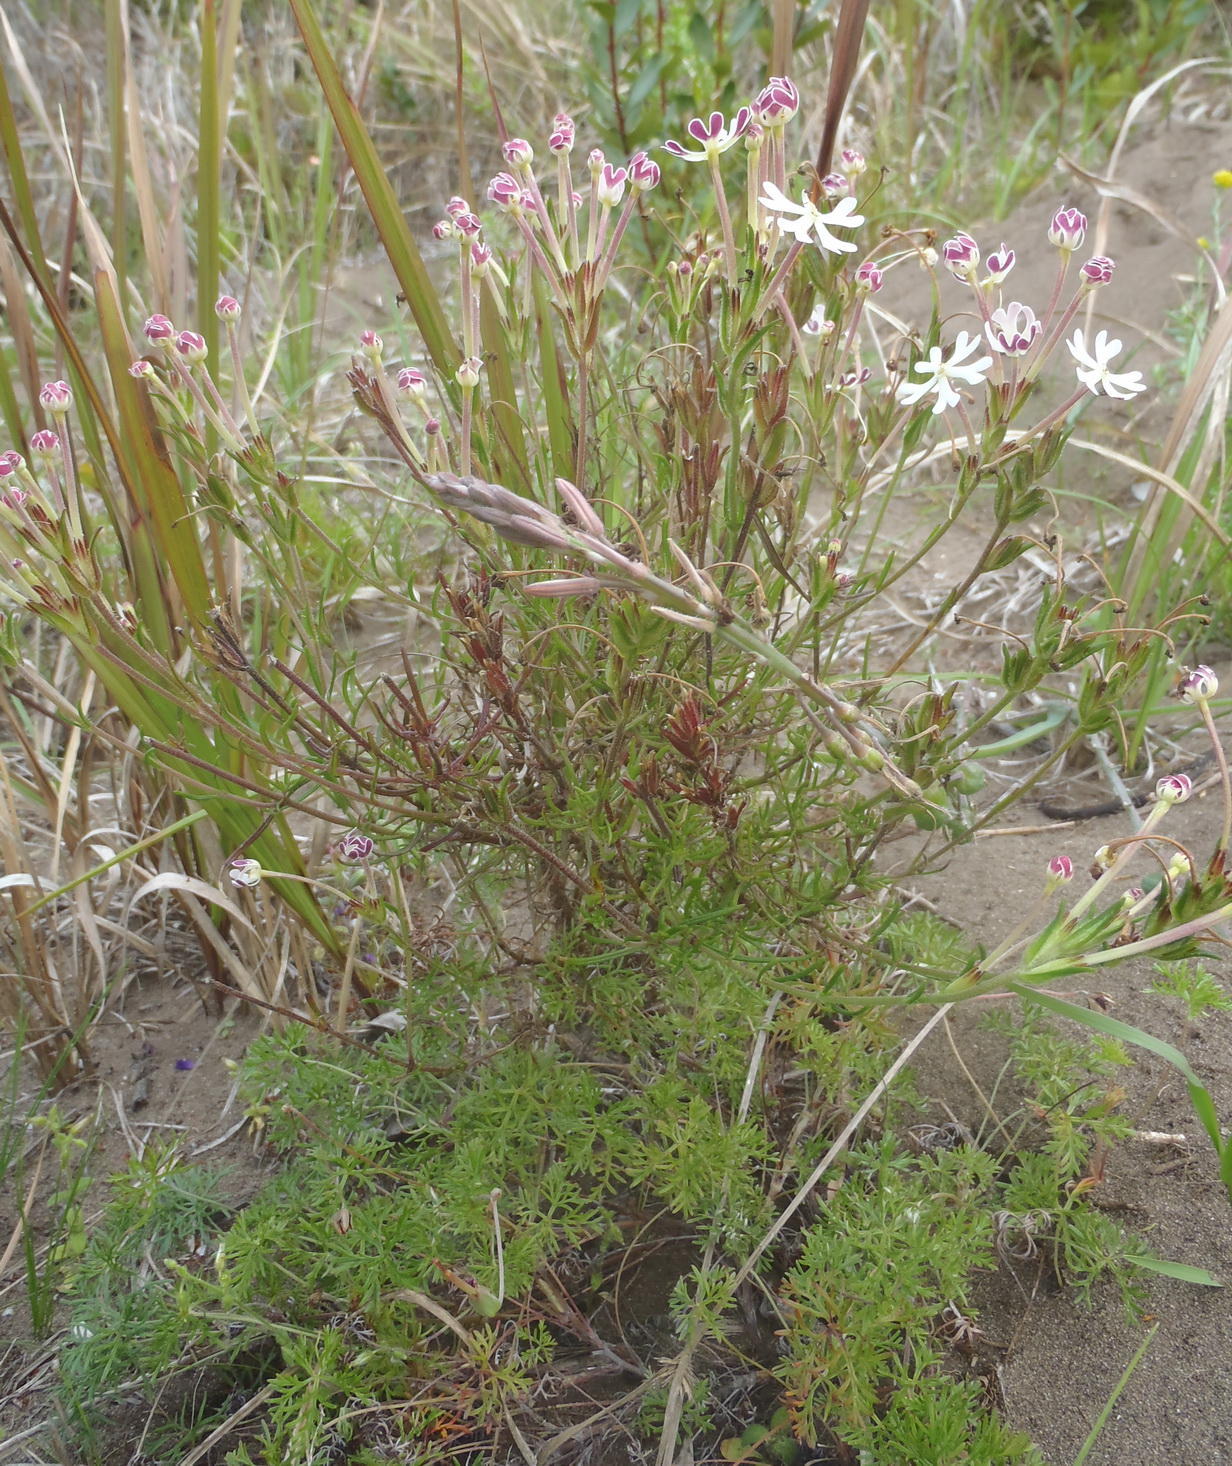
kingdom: Plantae
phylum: Tracheophyta
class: Magnoliopsida
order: Lamiales
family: Scrophulariaceae
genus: Zaluzianskya
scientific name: Zaluzianskya capensis
